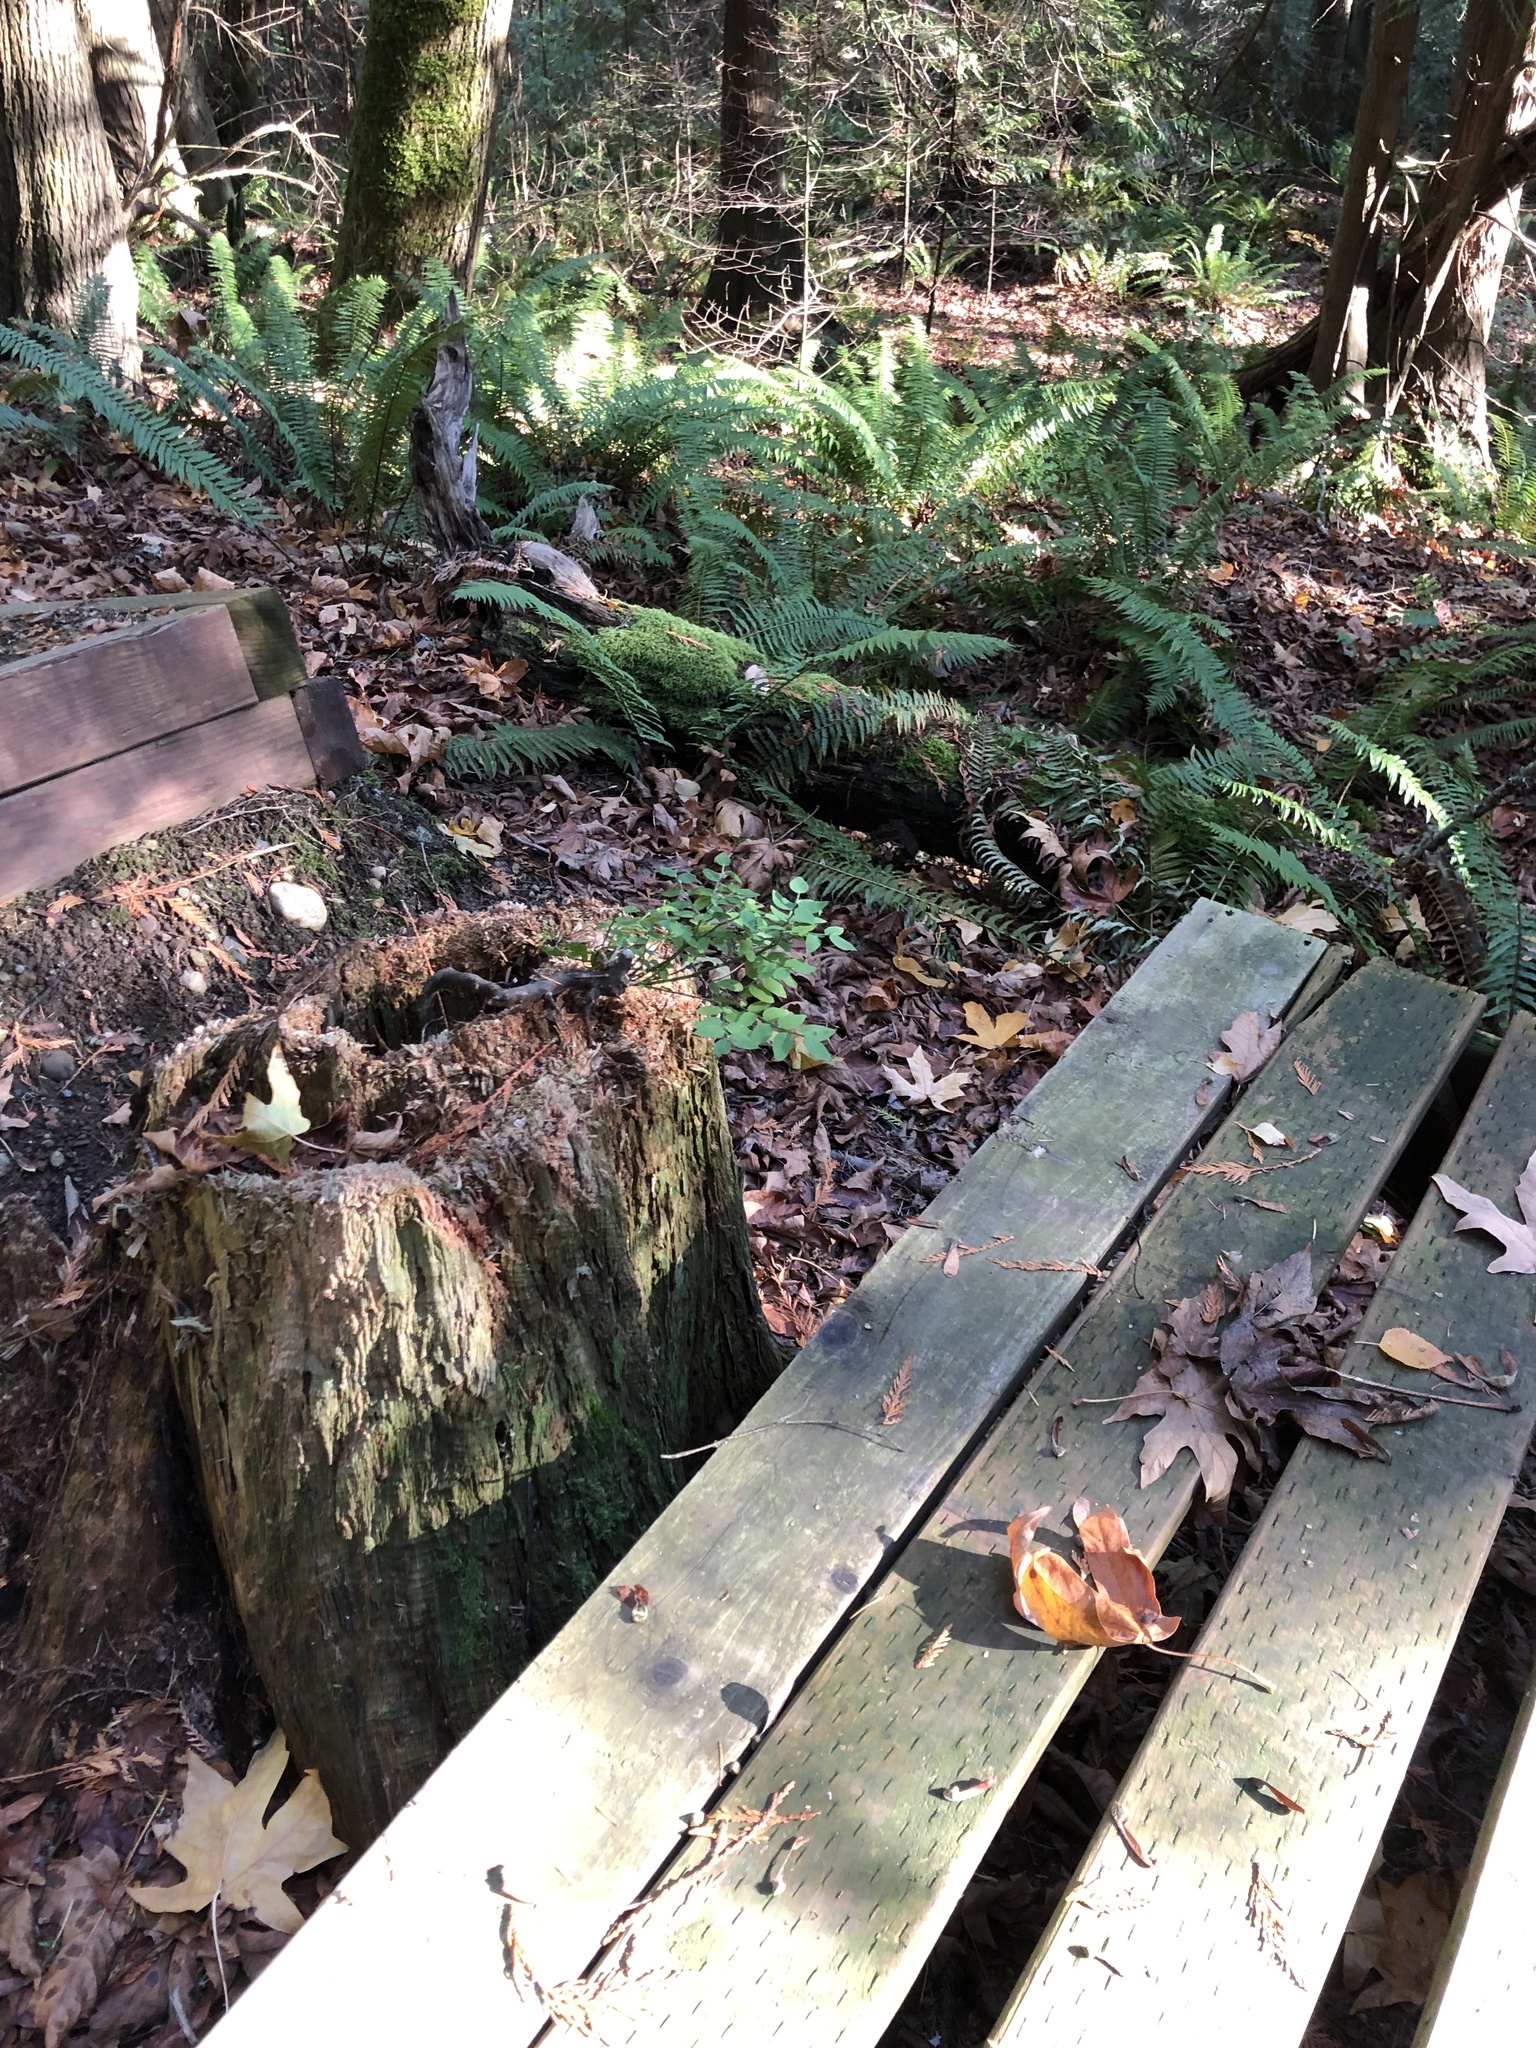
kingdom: Plantae
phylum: Tracheophyta
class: Magnoliopsida
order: Ericales
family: Ericaceae
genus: Vaccinium
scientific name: Vaccinium parvifolium
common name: Red-huckleberry
